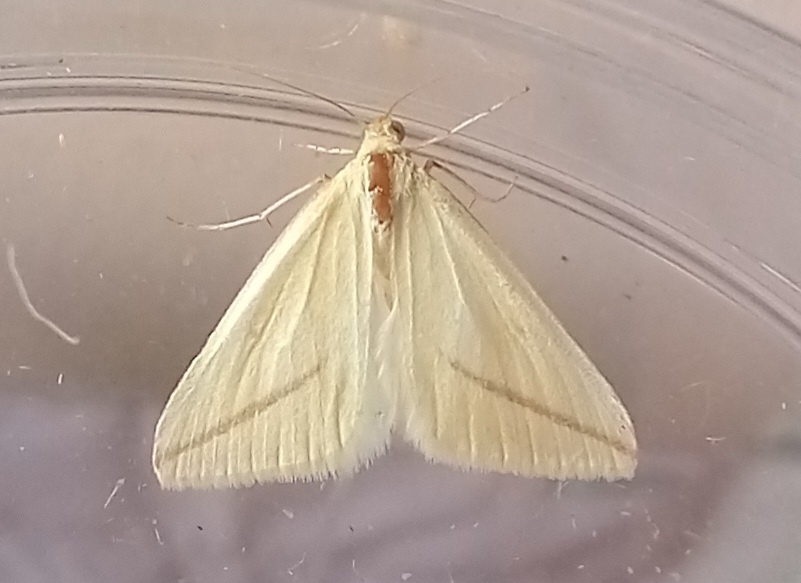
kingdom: Animalia
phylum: Arthropoda
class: Insecta
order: Lepidoptera
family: Geometridae
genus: Rhodometra
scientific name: Rhodometra sacraria
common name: Vestal
